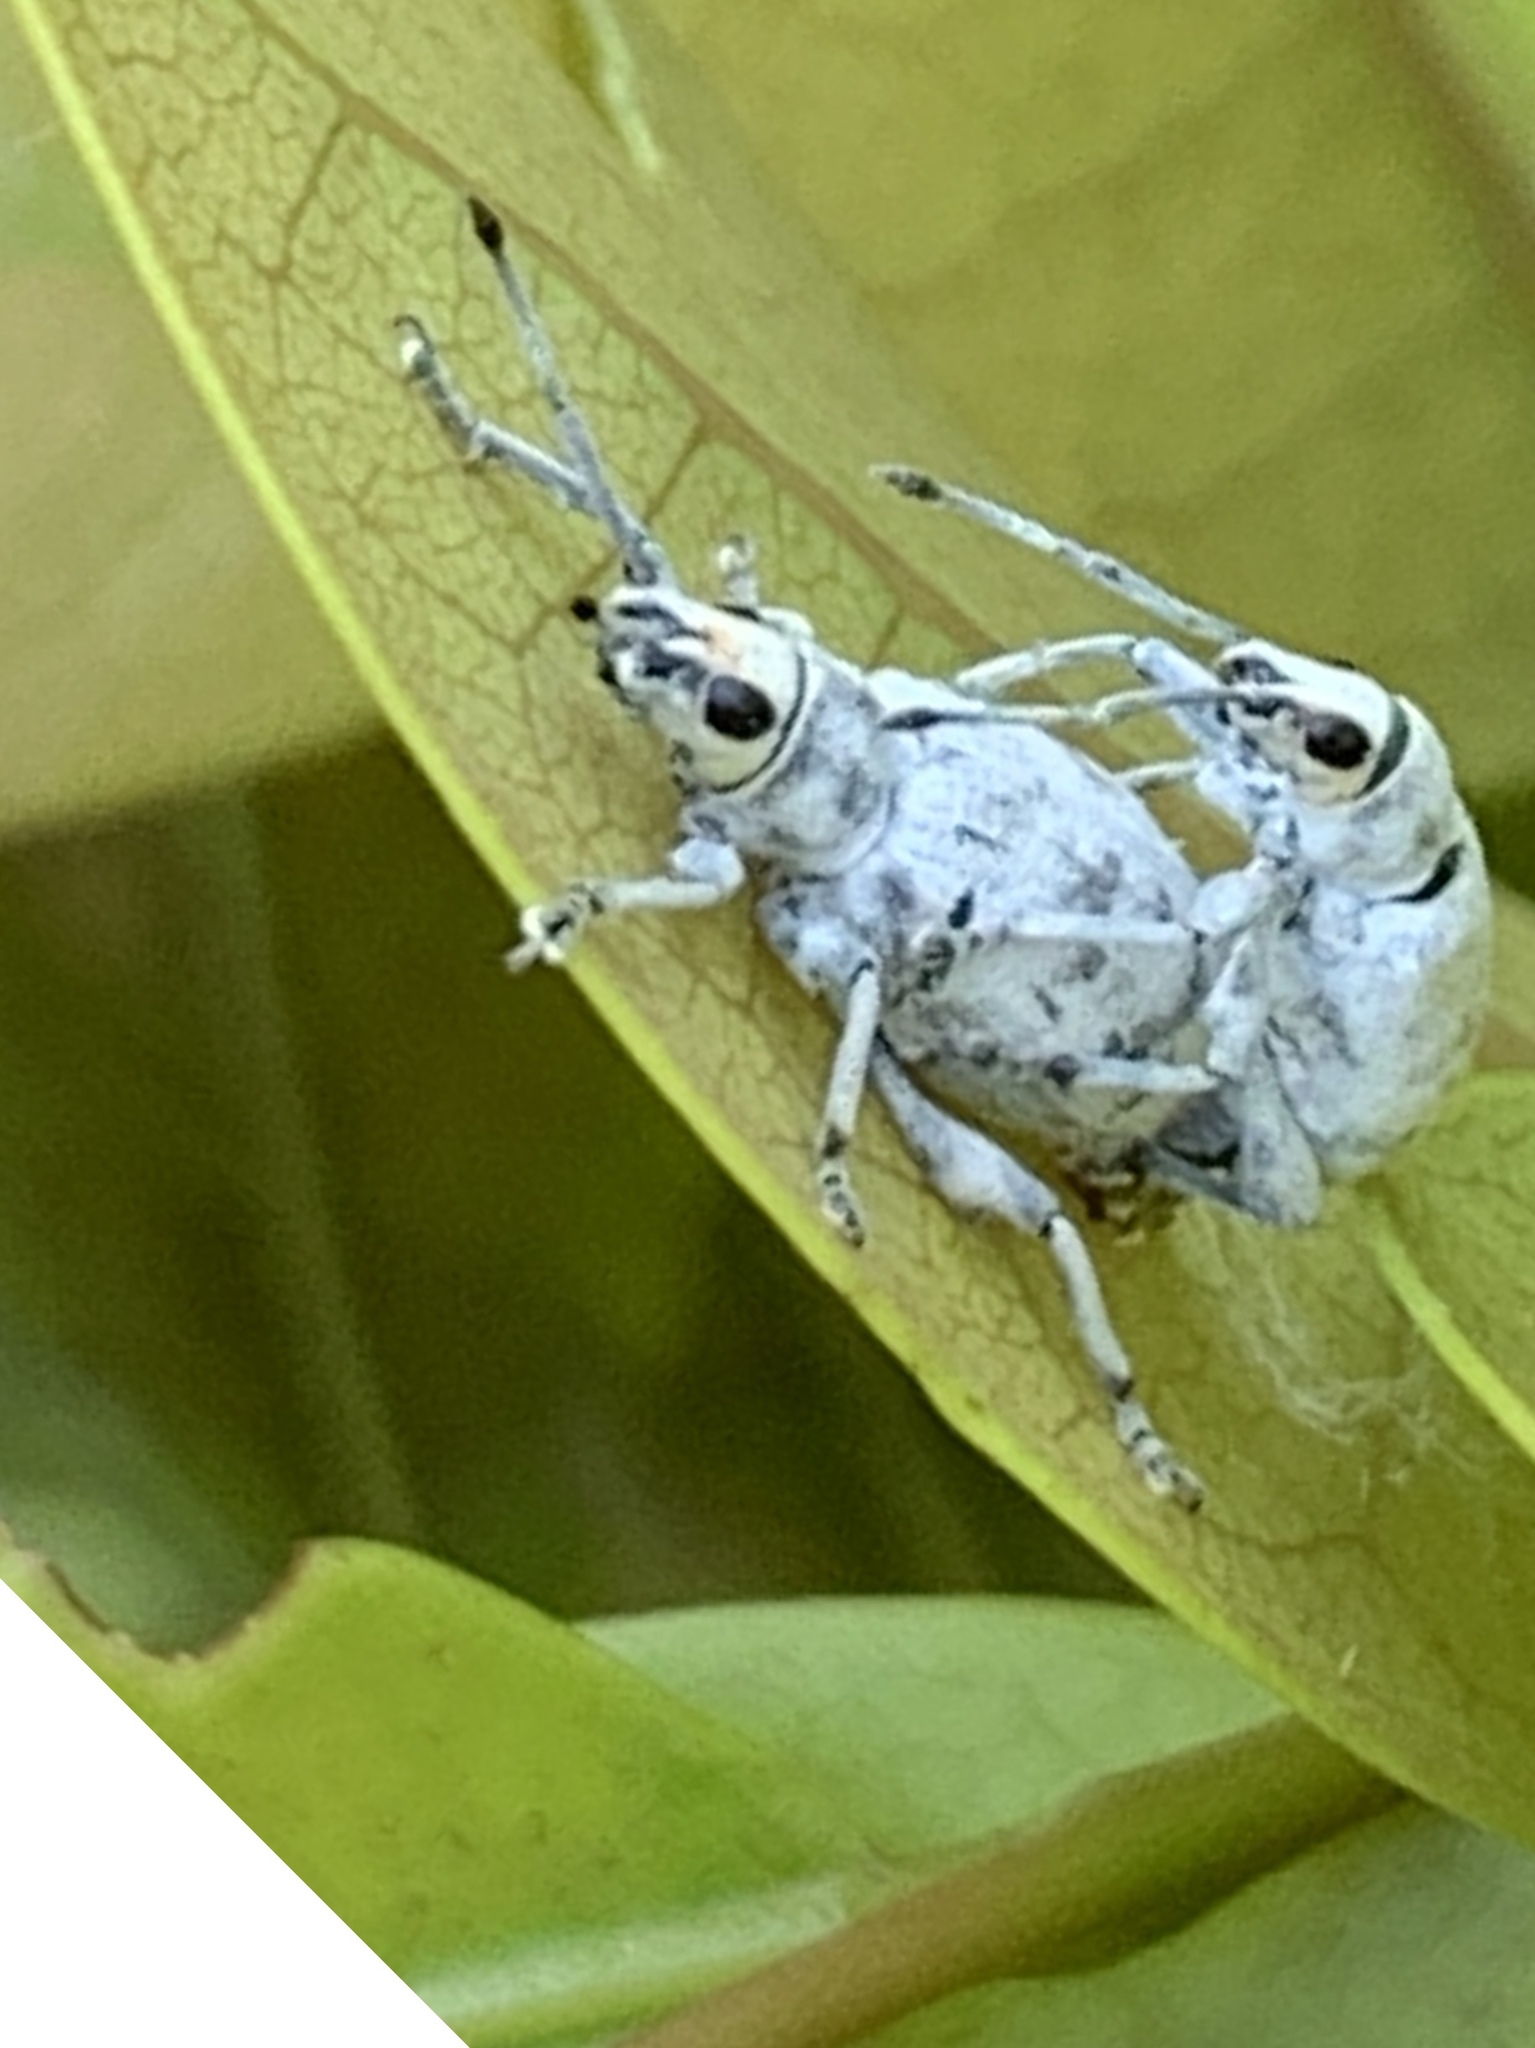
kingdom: Animalia
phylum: Arthropoda
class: Insecta
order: Coleoptera
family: Curculionidae
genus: Myllocerus
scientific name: Myllocerus undecimpustulatus
